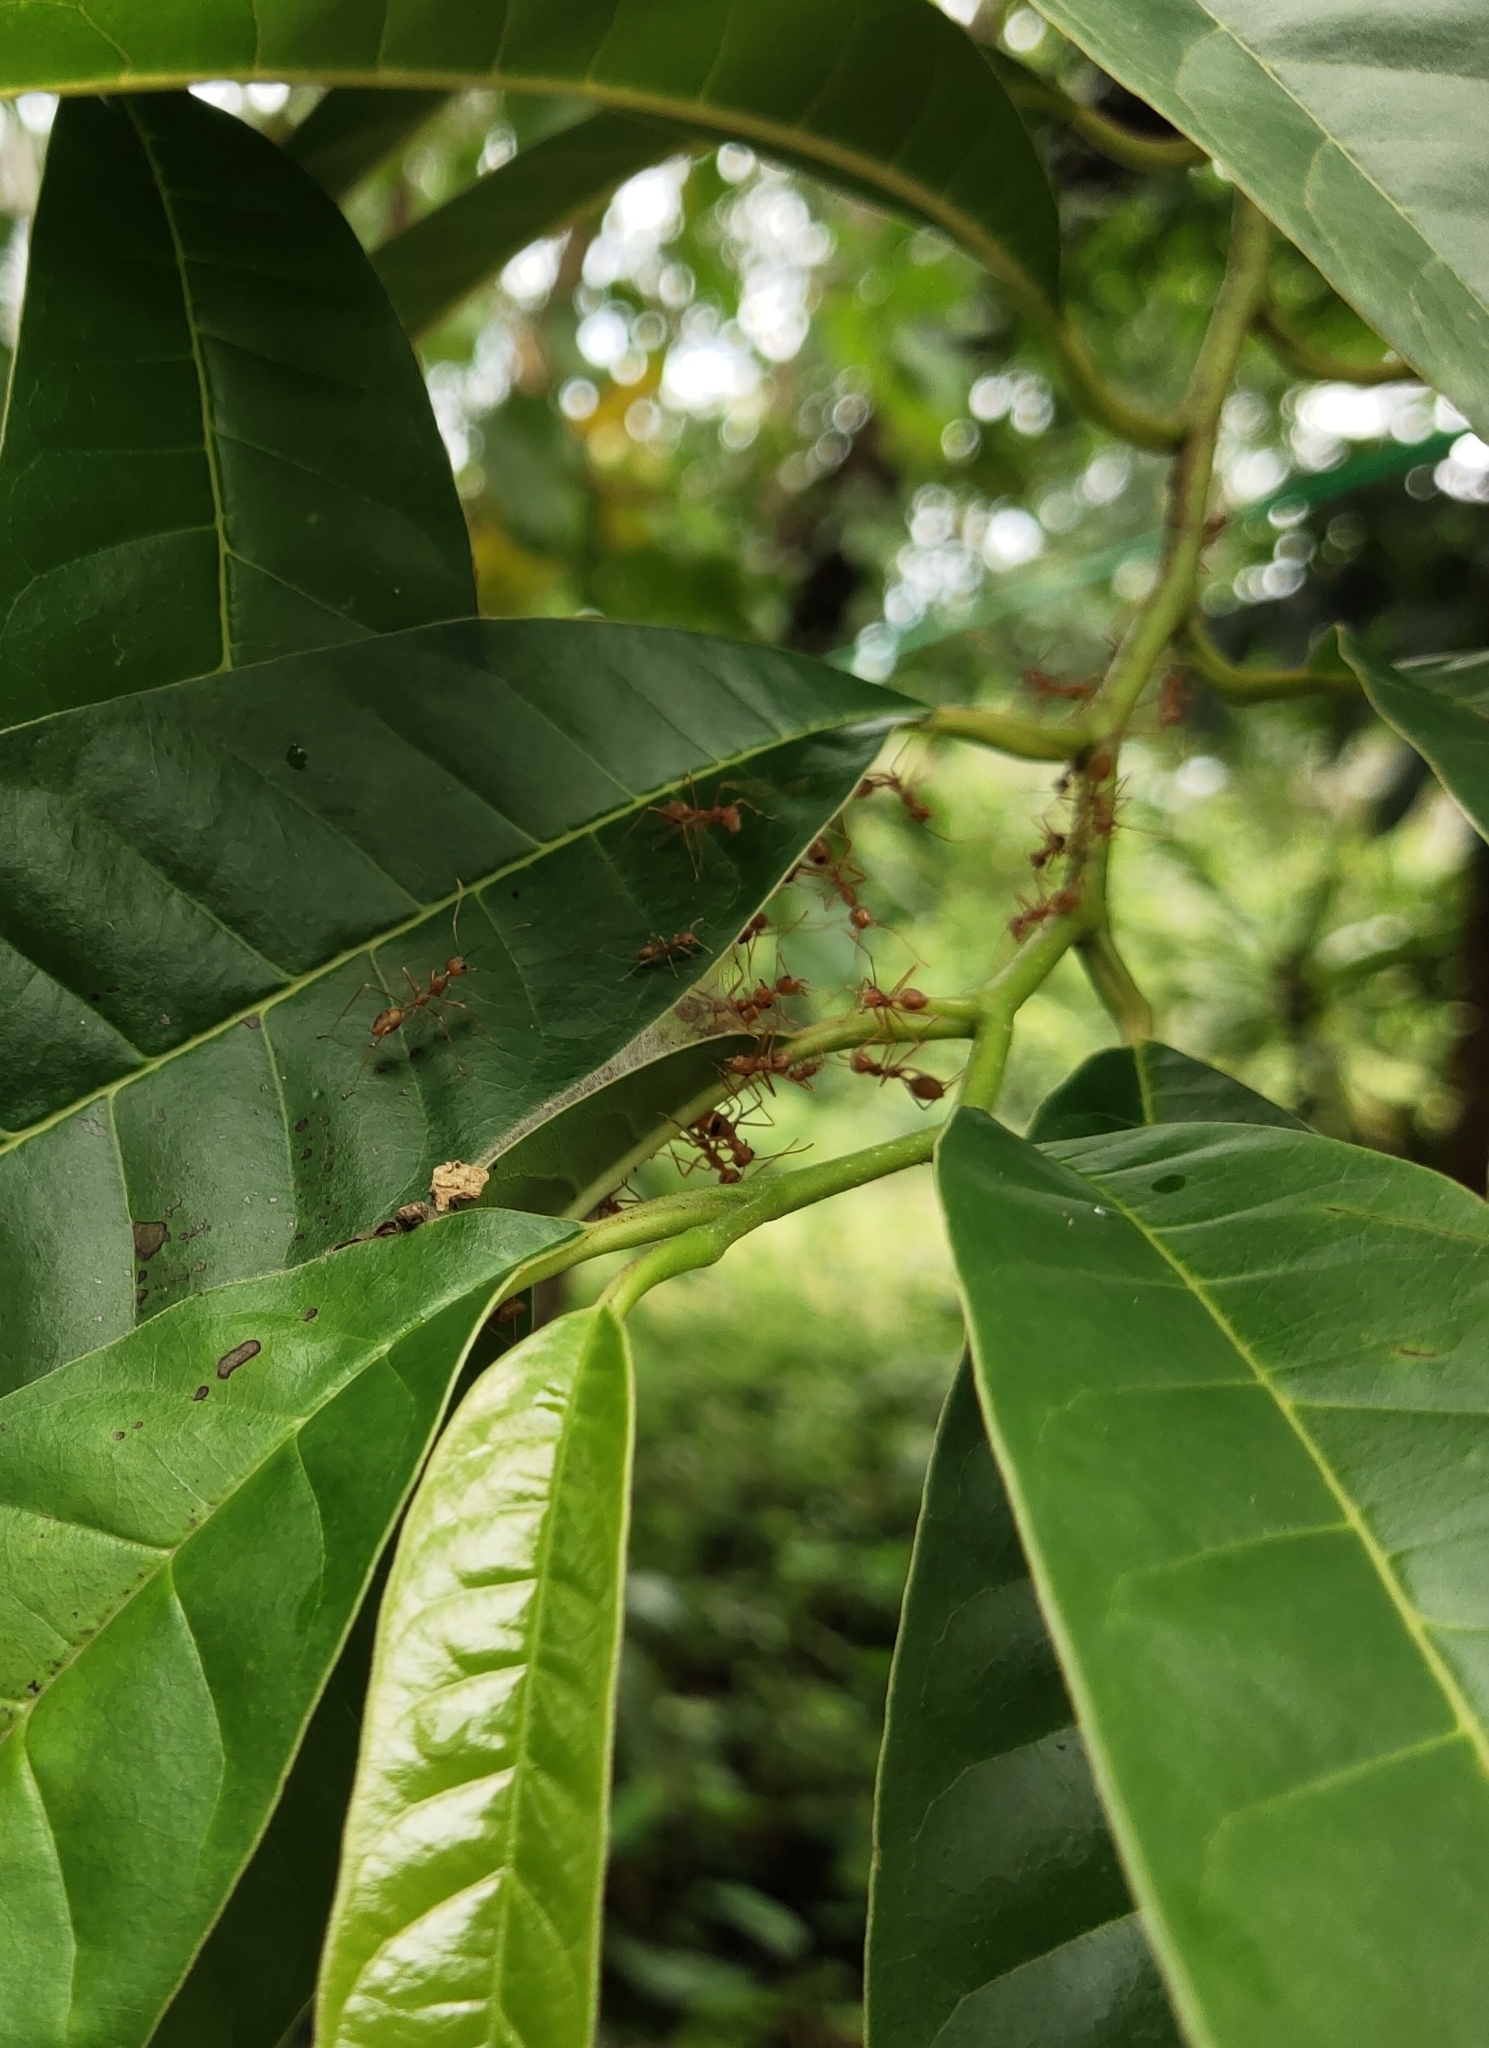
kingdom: Animalia
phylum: Arthropoda
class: Insecta
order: Hymenoptera
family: Formicidae
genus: Oecophylla
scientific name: Oecophylla smaragdina
